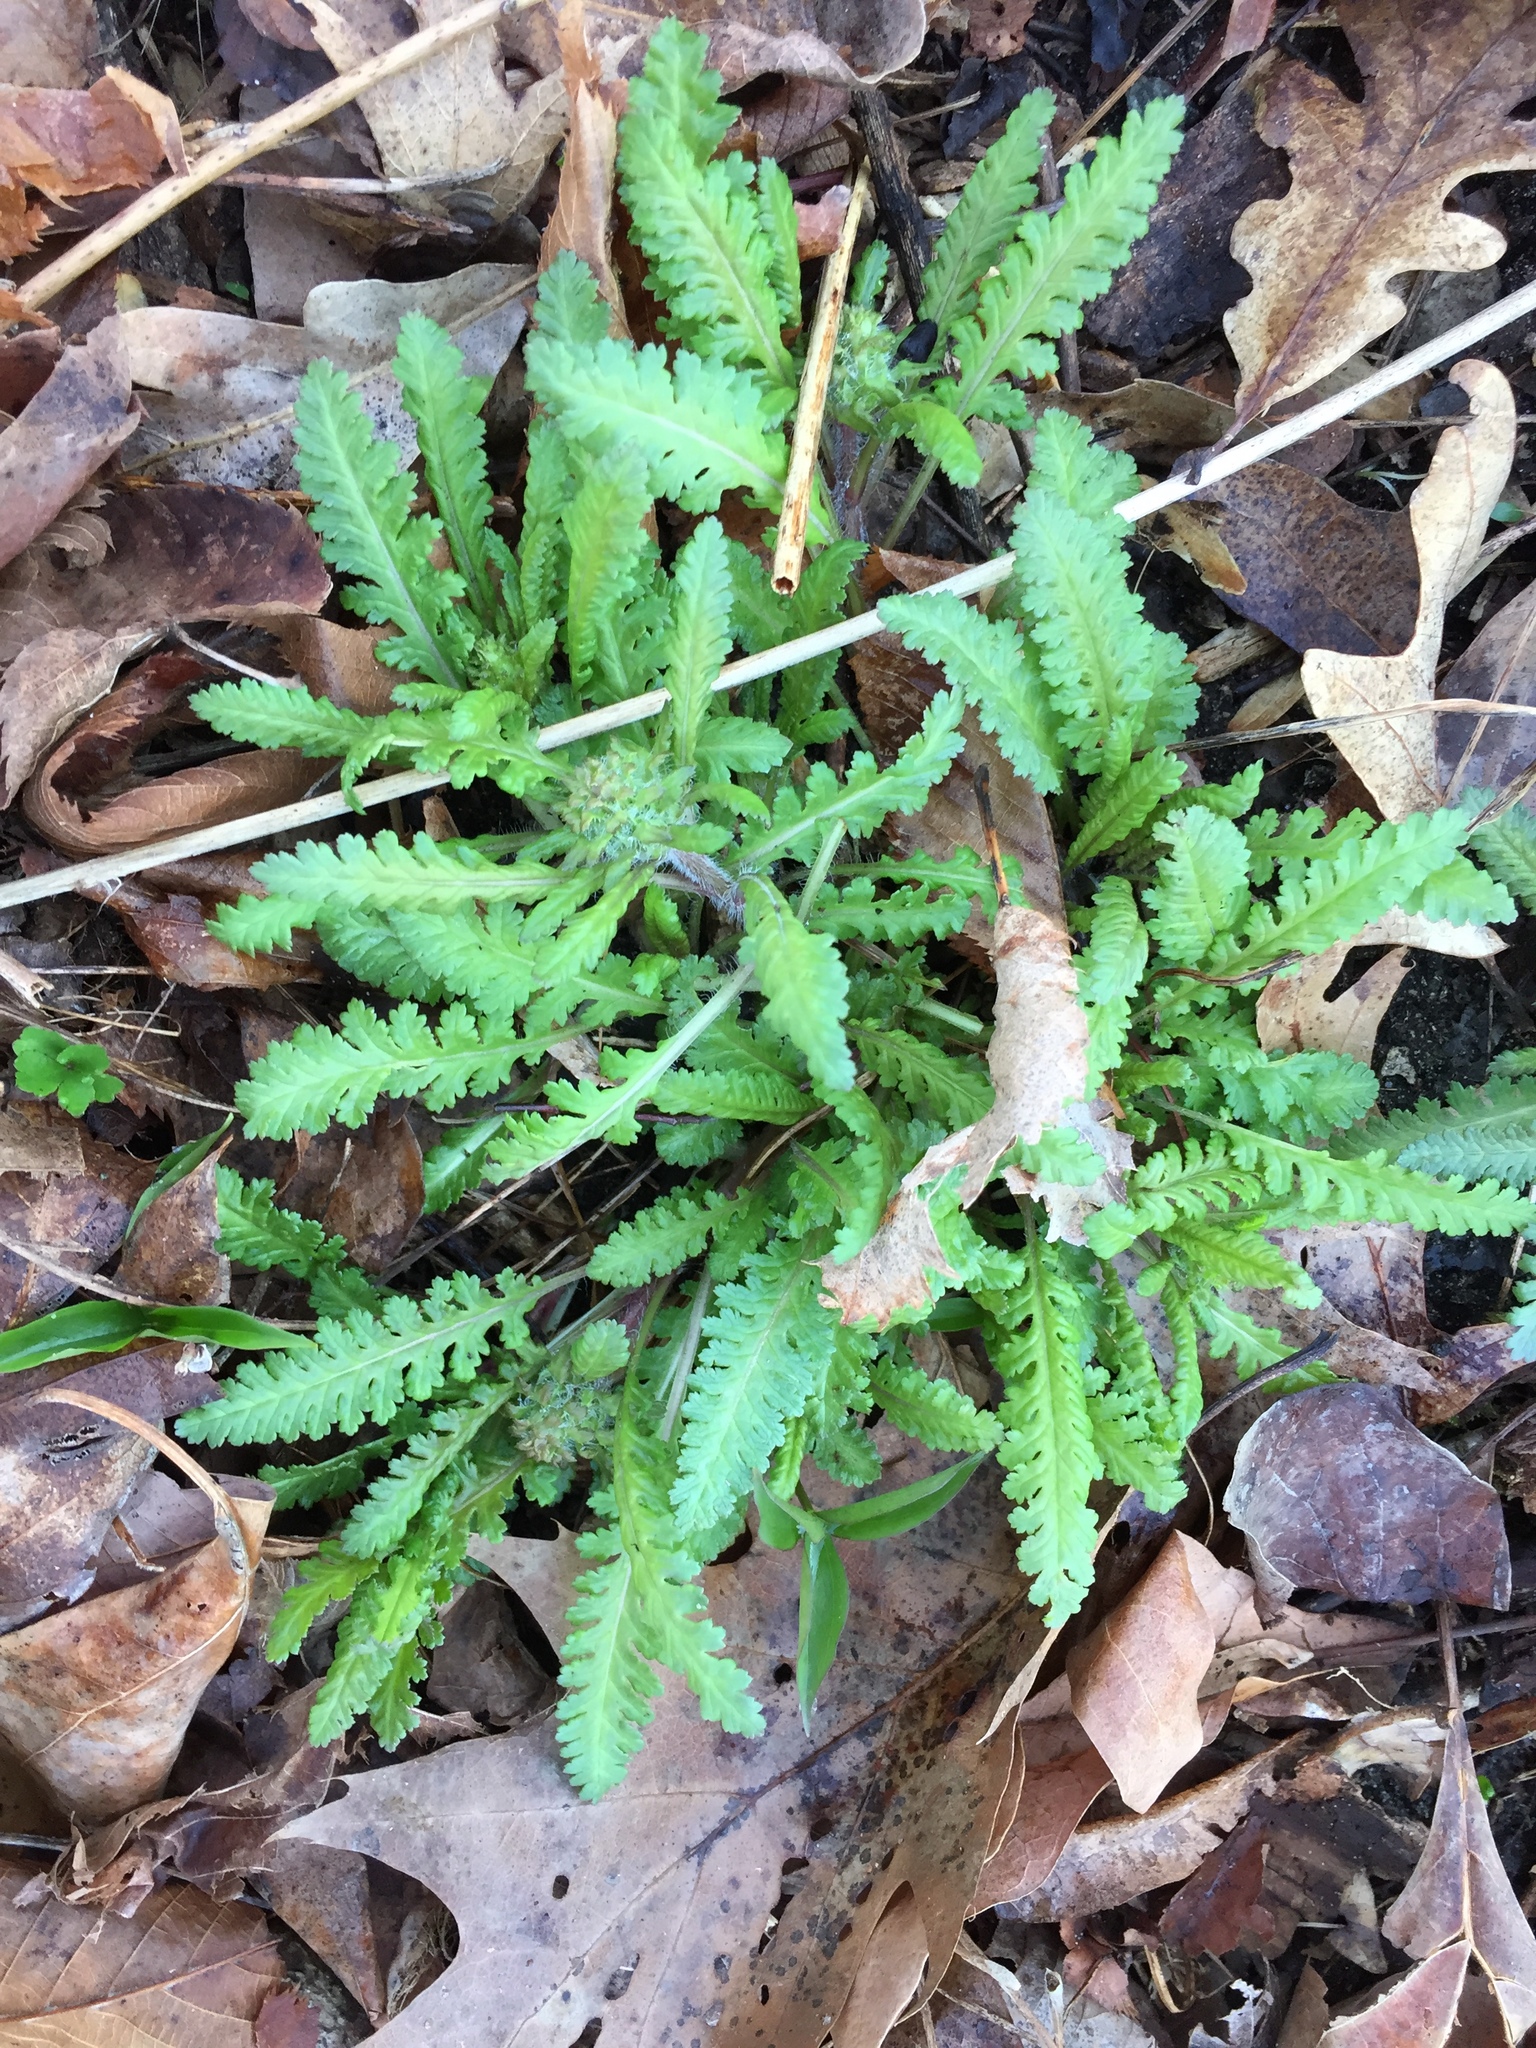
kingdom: Plantae
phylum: Tracheophyta
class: Magnoliopsida
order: Lamiales
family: Orobanchaceae
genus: Pedicularis
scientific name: Pedicularis canadensis
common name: Early lousewort
